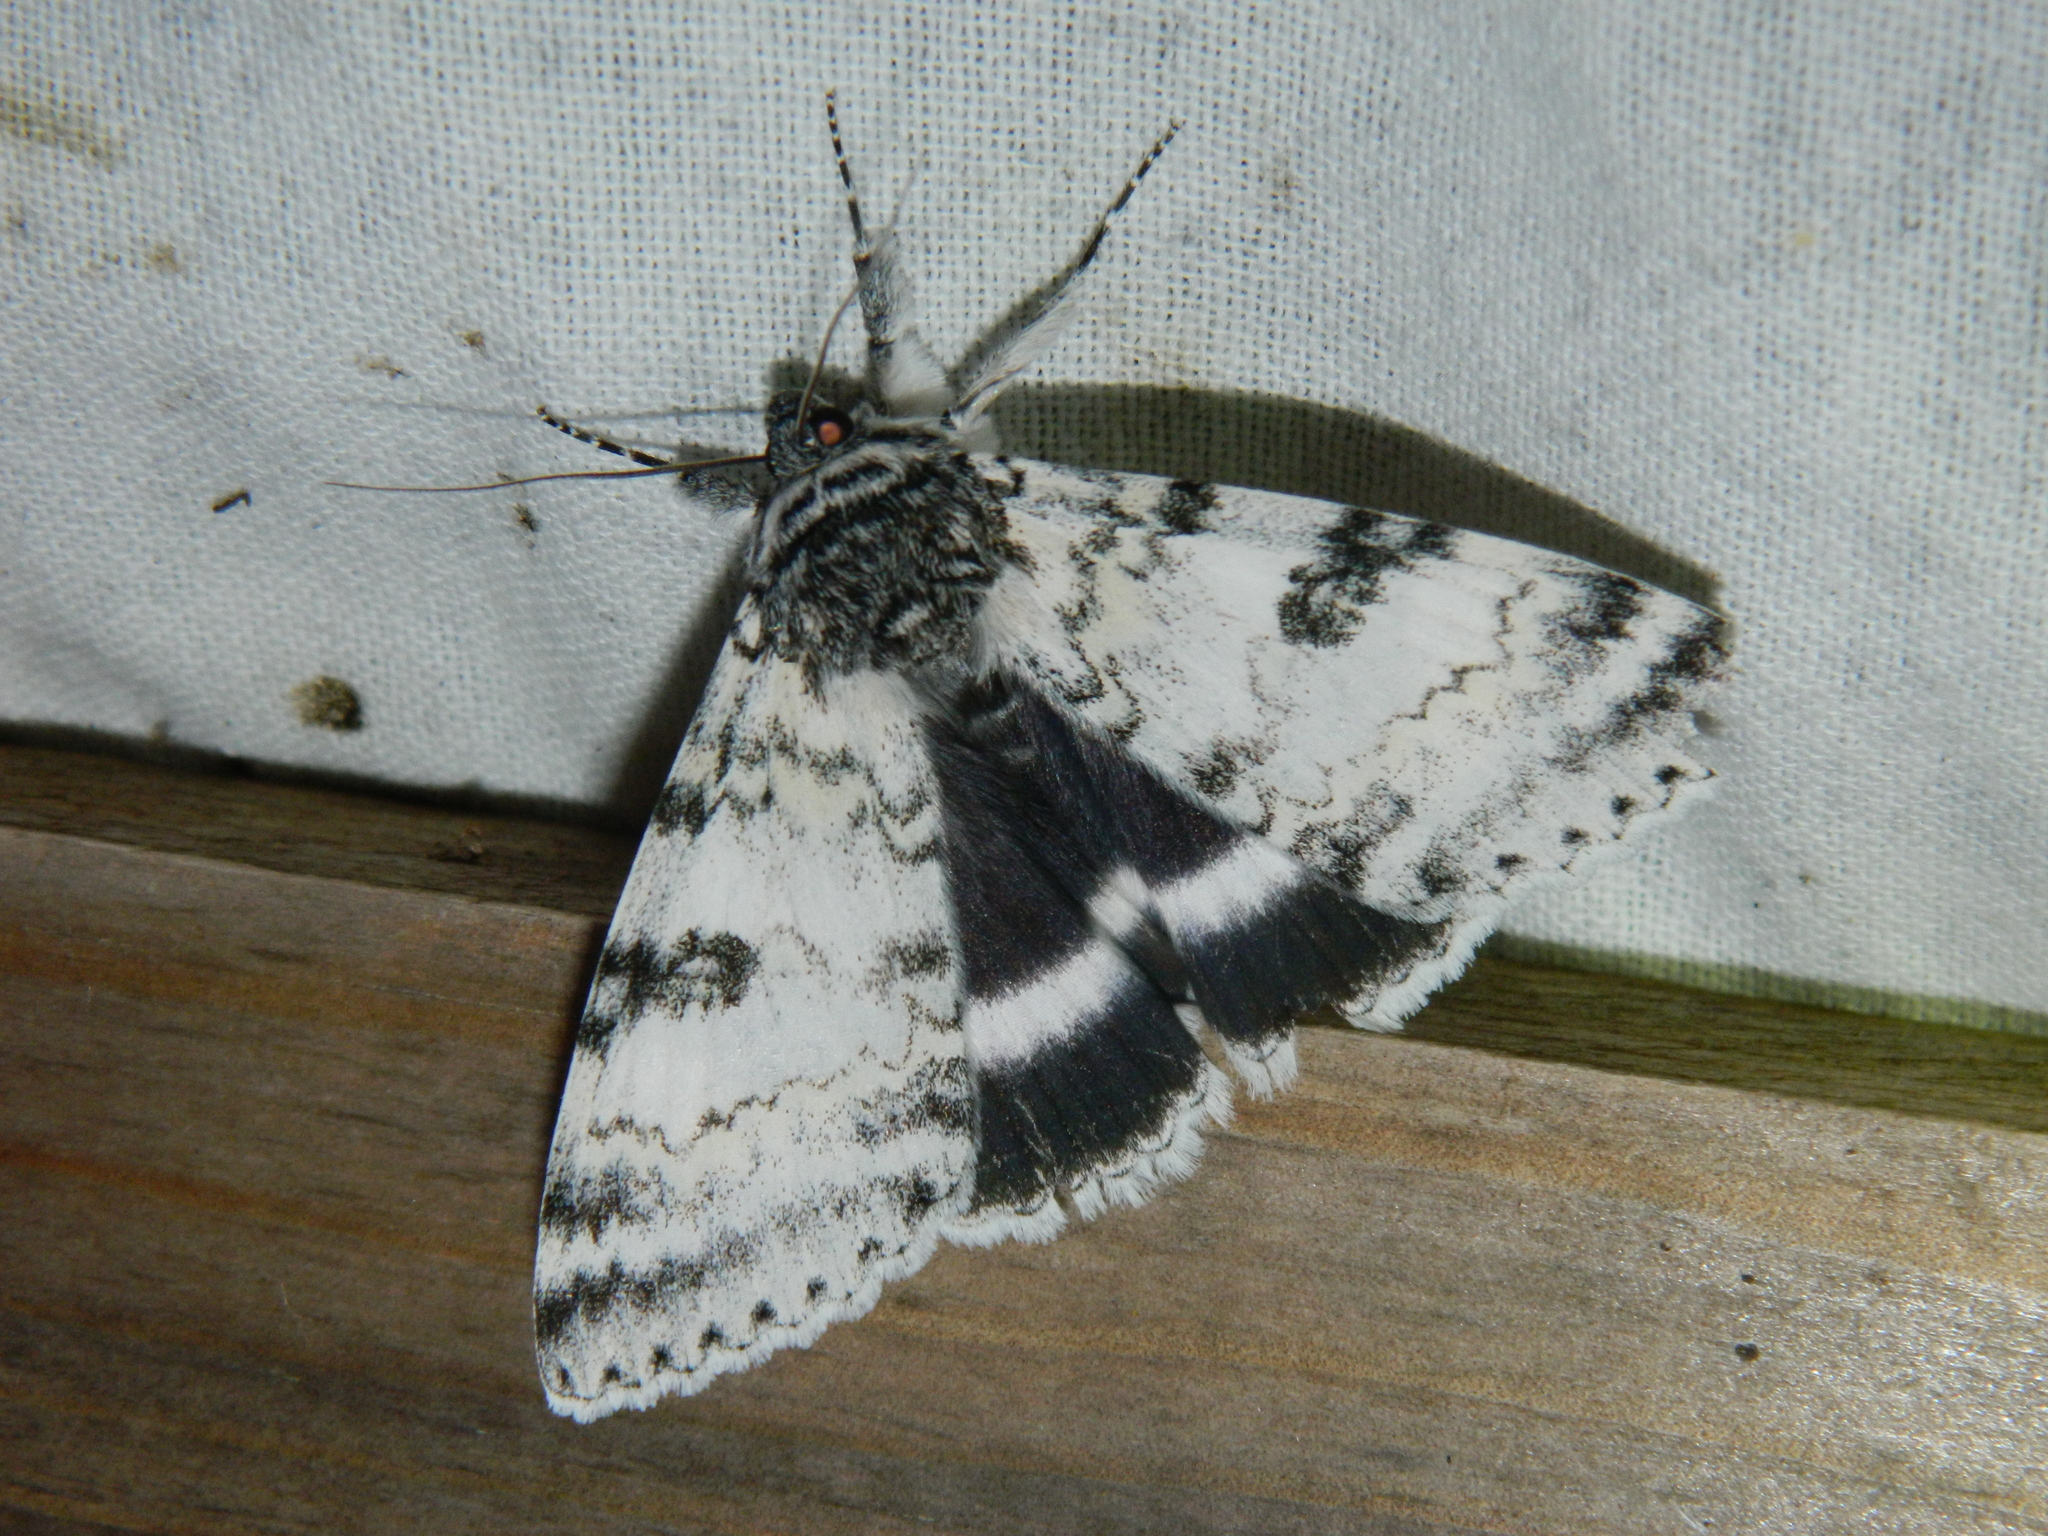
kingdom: Animalia
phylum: Arthropoda
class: Insecta
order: Lepidoptera
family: Erebidae
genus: Catocala
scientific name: Catocala relicta
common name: White underwing
